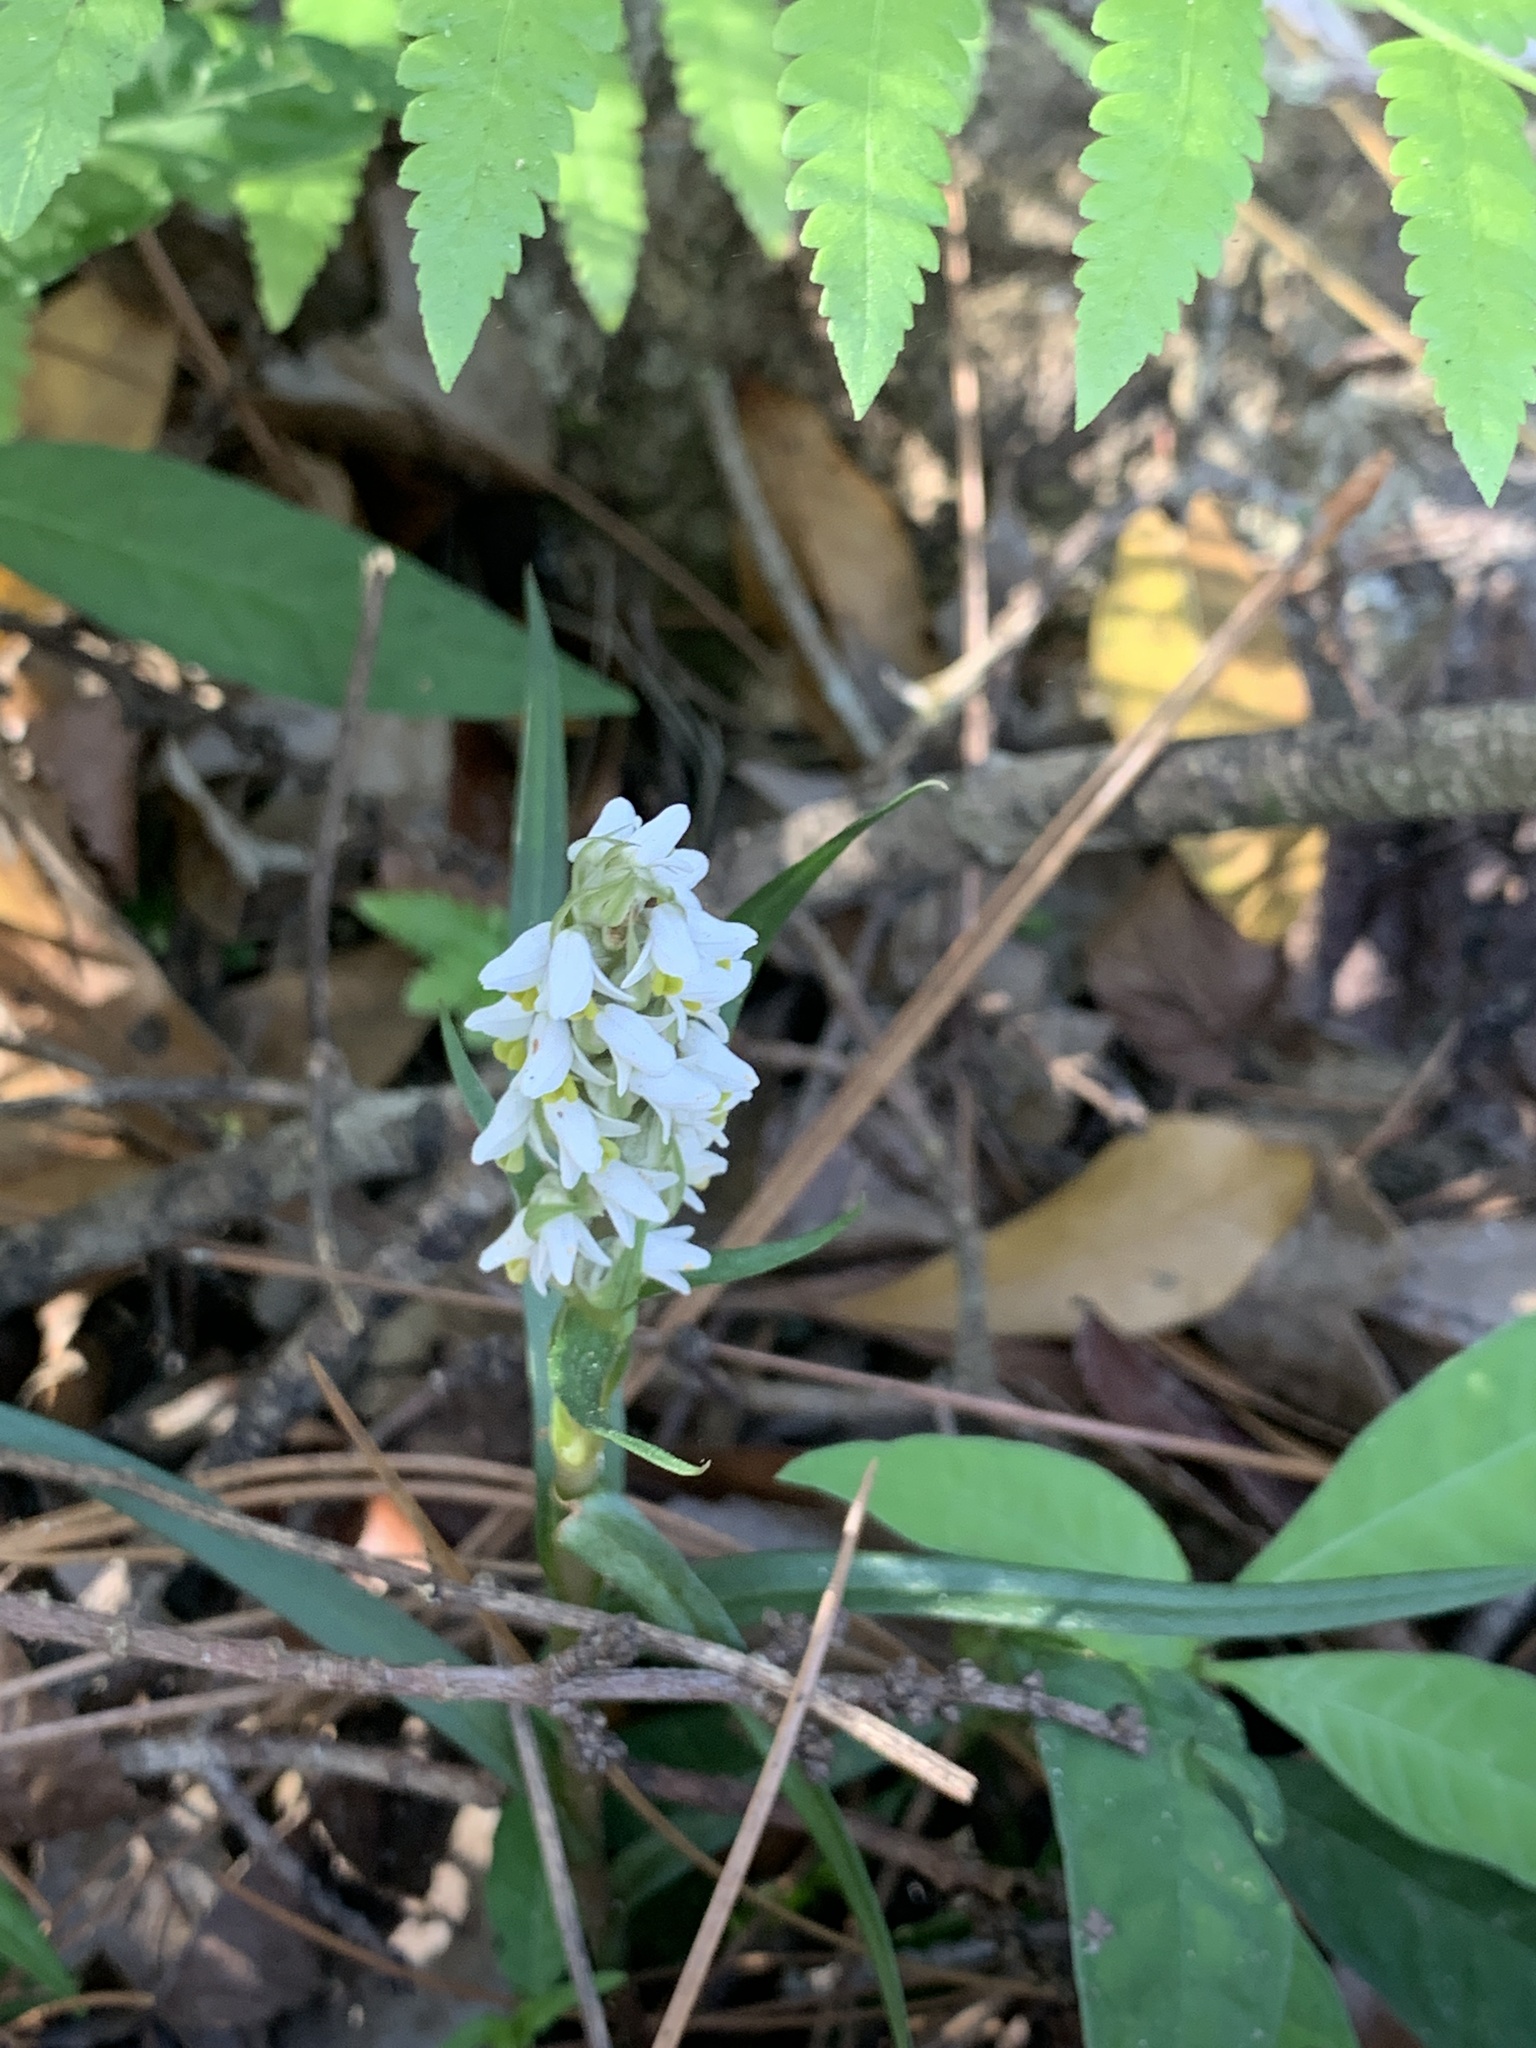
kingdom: Plantae
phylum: Tracheophyta
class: Liliopsida
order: Asparagales
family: Orchidaceae
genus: Zeuxine
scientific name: Zeuxine strateumatica
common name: Soldier's orchid
